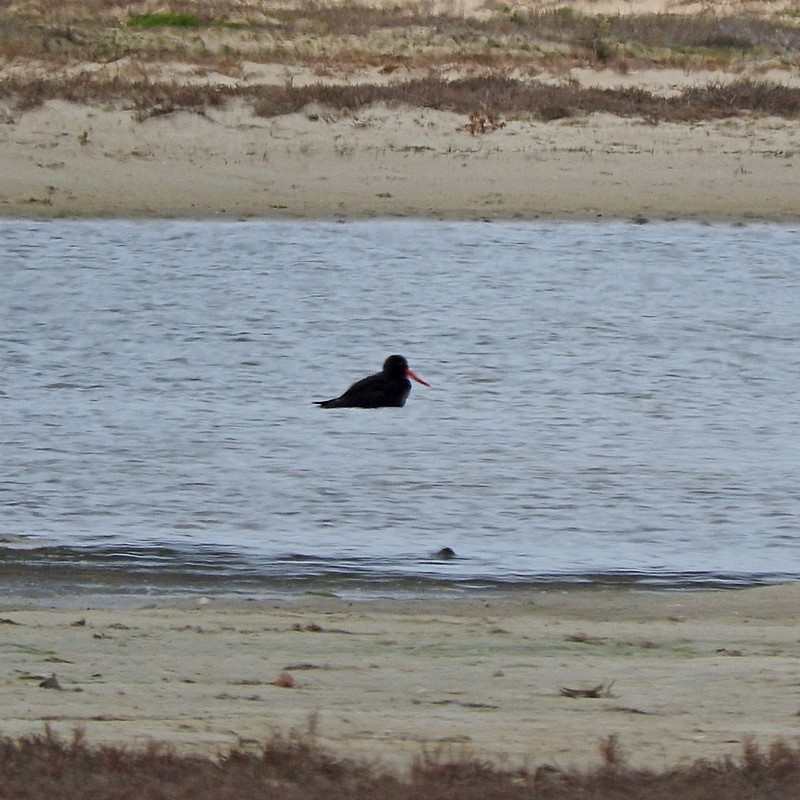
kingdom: Animalia
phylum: Chordata
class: Aves
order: Charadriiformes
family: Haematopodidae
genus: Haematopus
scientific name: Haematopus fuliginosus
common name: Sooty oystercatcher
